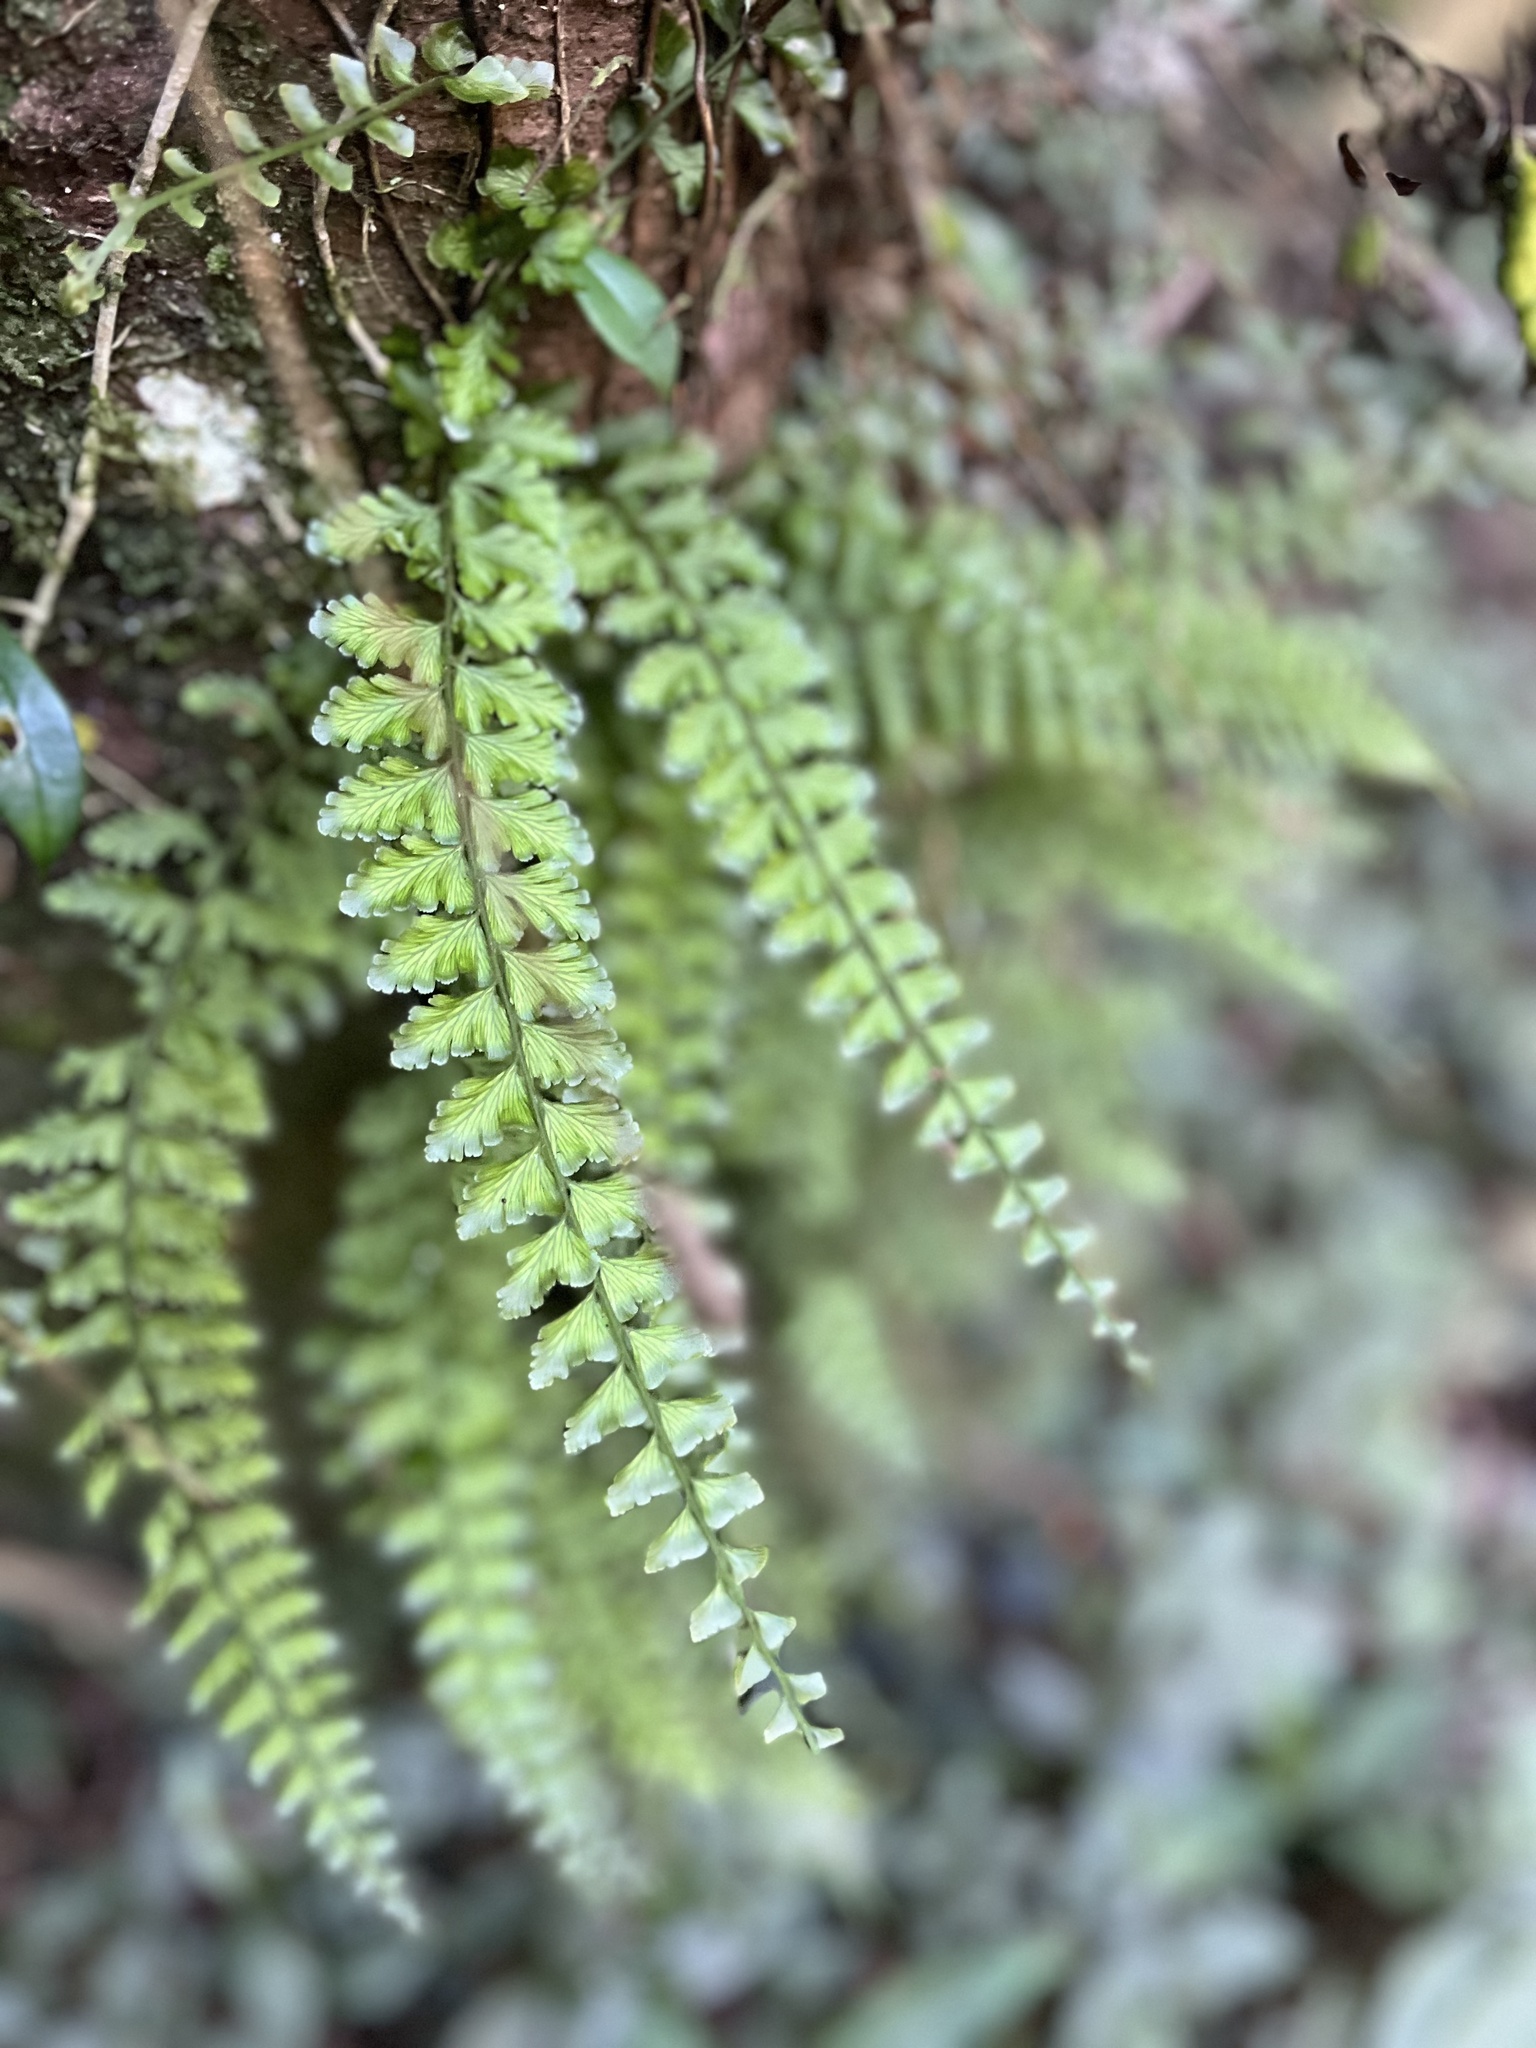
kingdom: Plantae
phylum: Tracheophyta
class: Polypodiopsida
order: Hymenophyllales
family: Hymenophyllaceae
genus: Vandenboschia
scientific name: Vandenboschia auriculata
